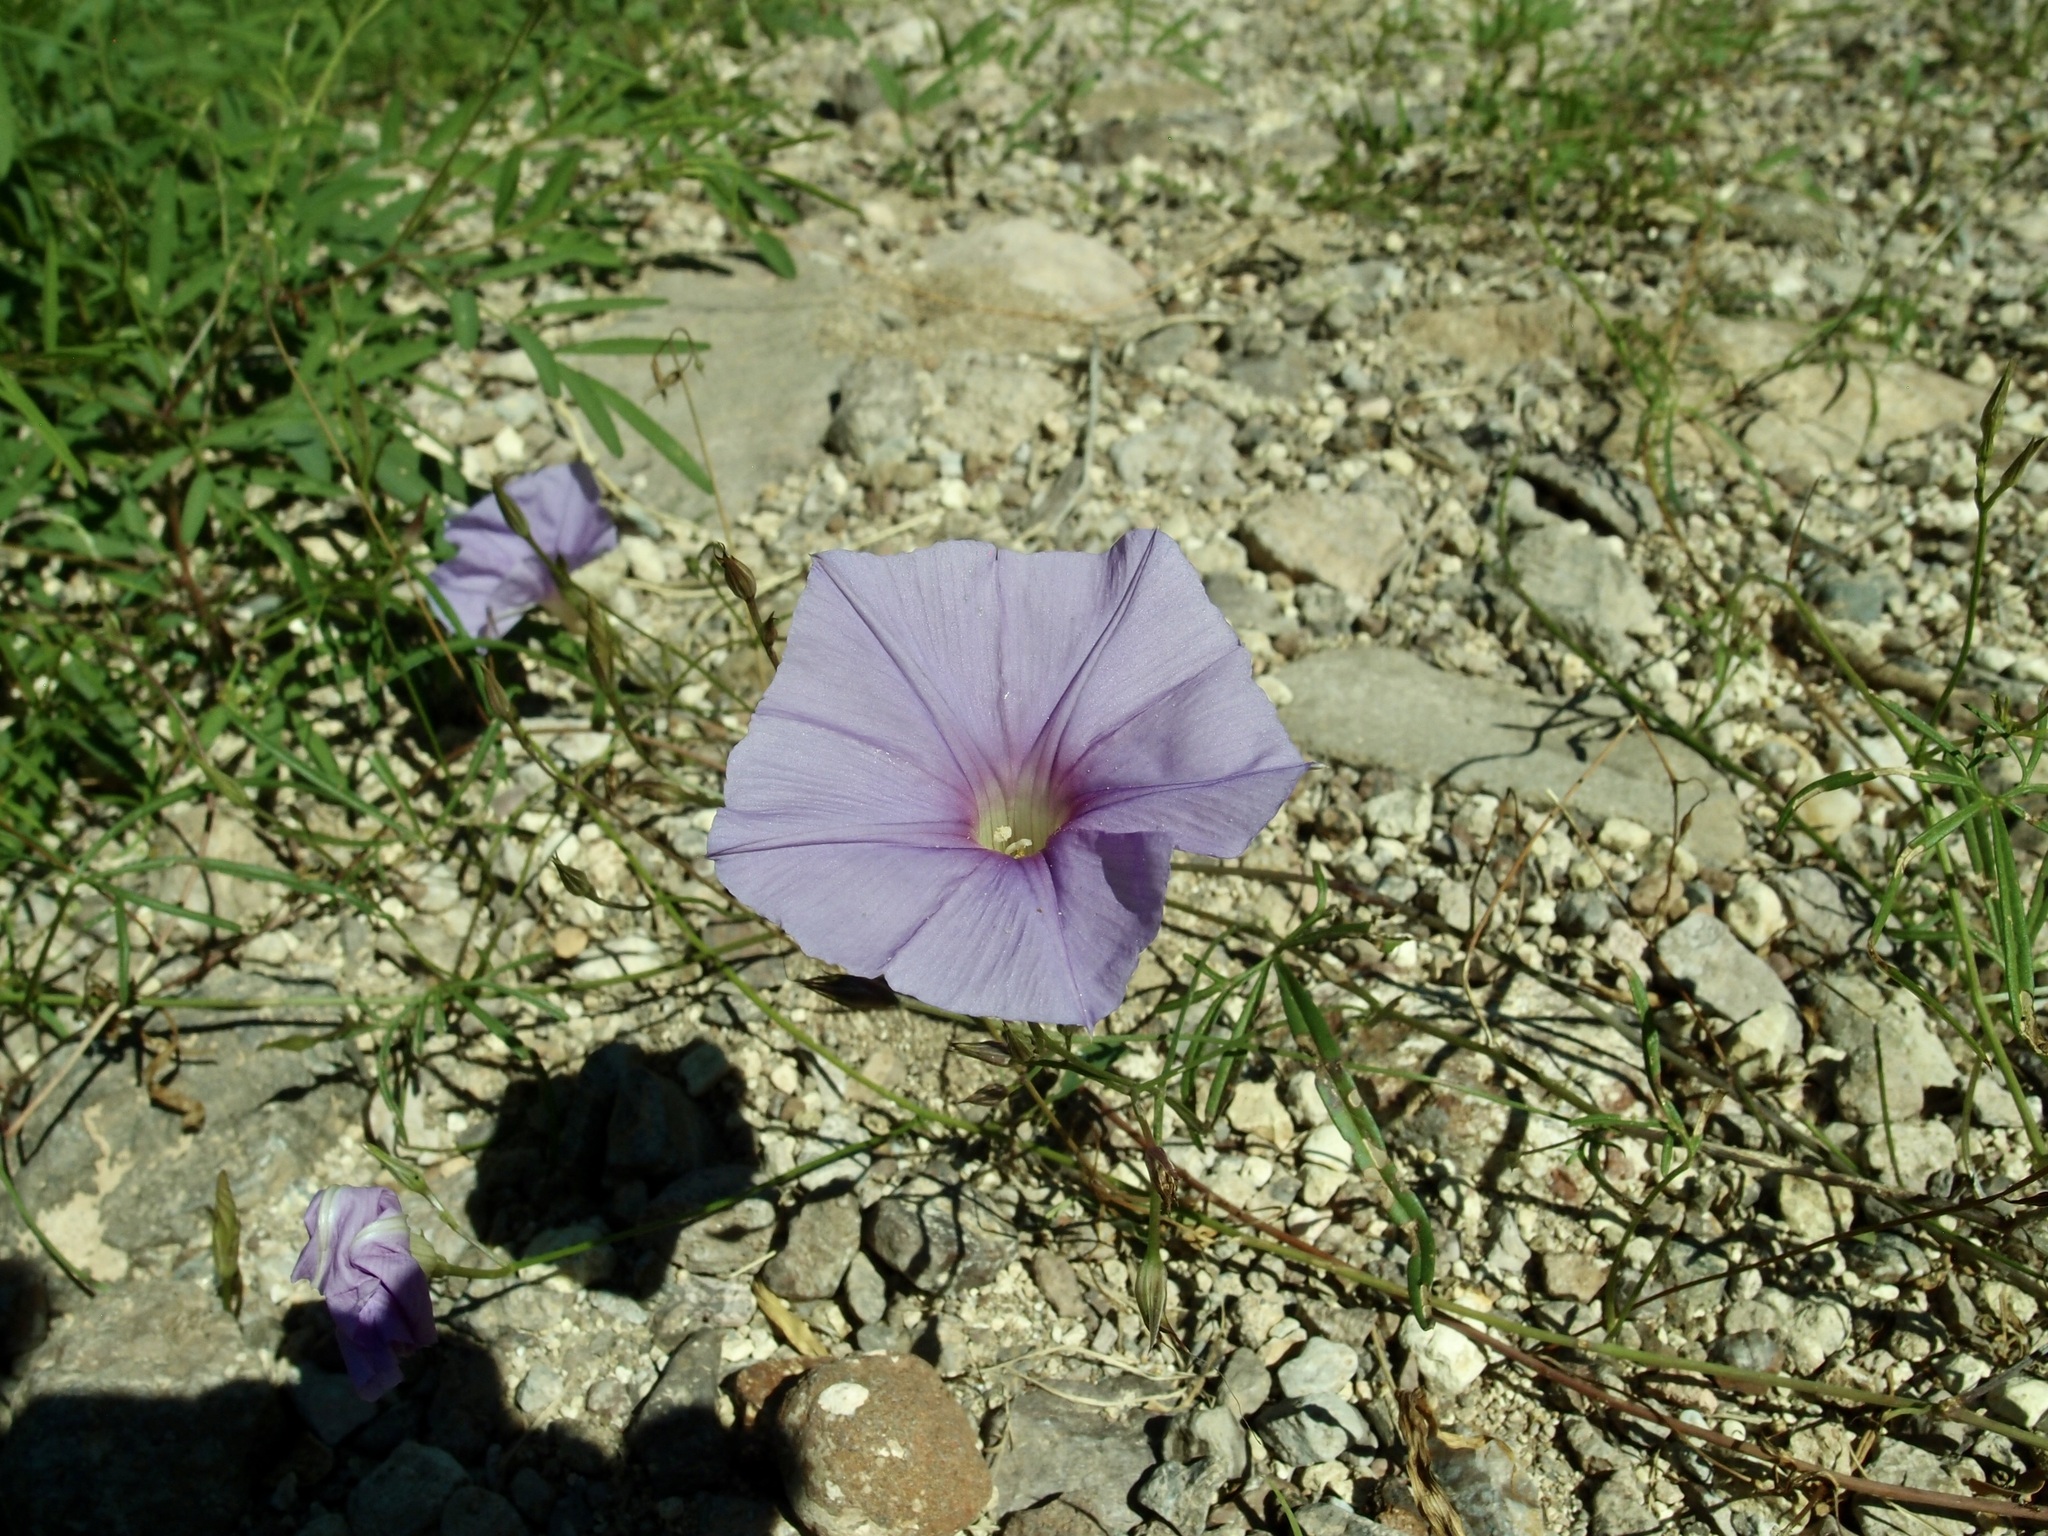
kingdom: Plantae
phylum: Tracheophyta
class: Magnoliopsida
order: Solanales
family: Convolvulaceae
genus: Ipomoea
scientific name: Ipomoea ternifolia
